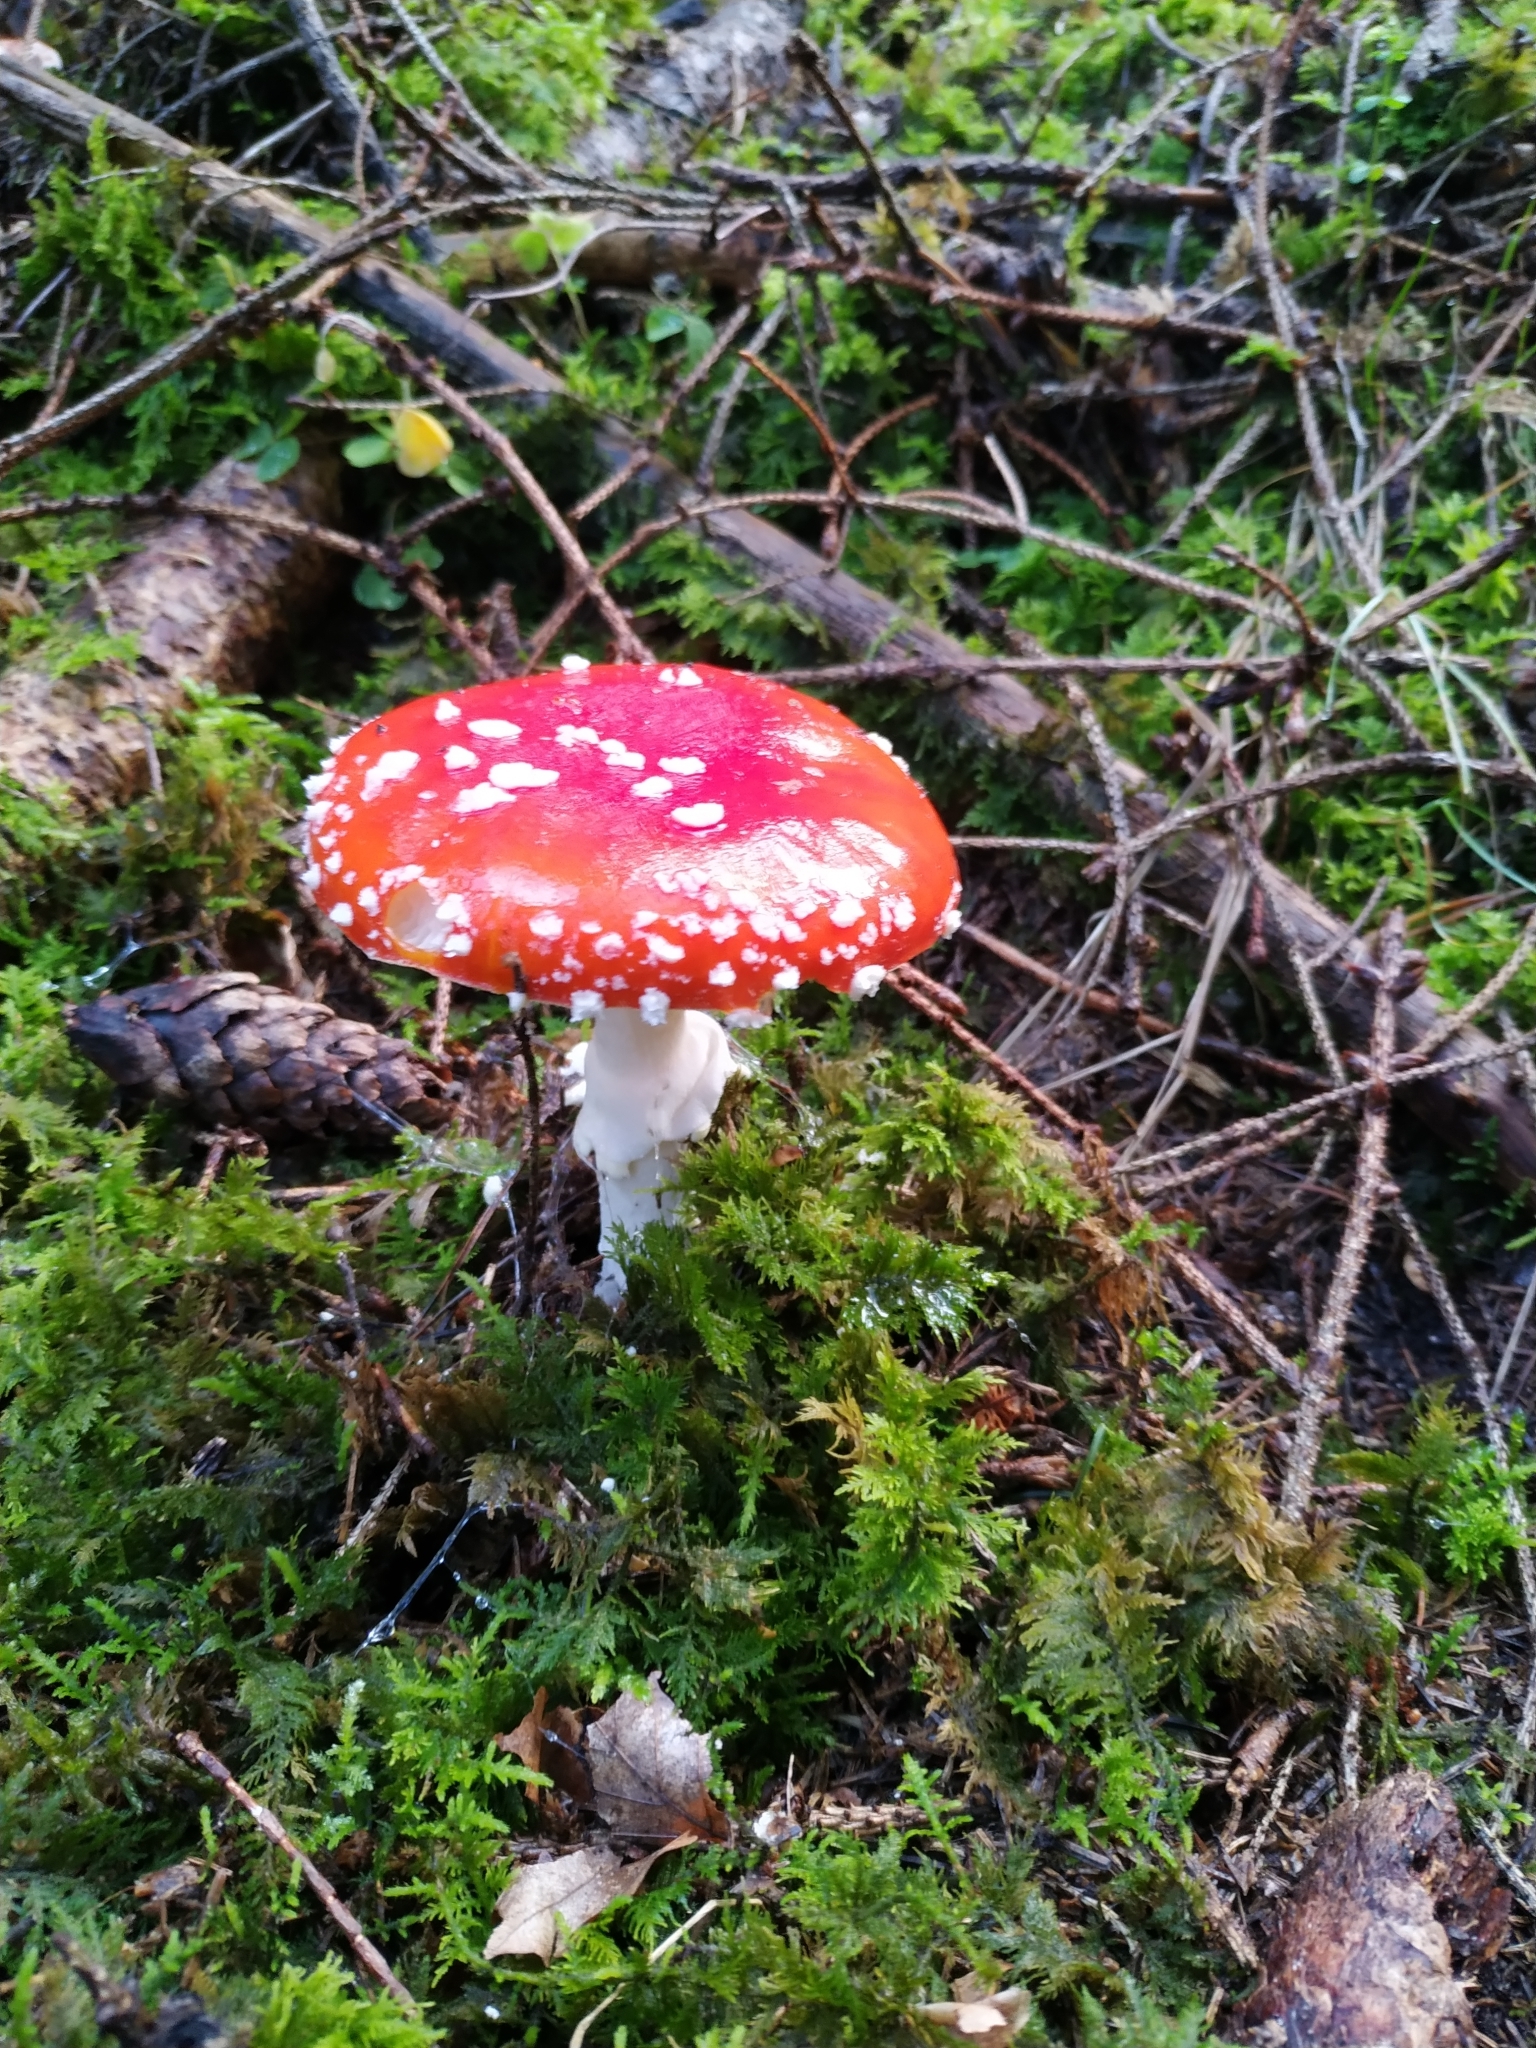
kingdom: Fungi
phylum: Basidiomycota
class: Agaricomycetes
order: Agaricales
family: Amanitaceae
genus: Amanita
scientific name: Amanita muscaria
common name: Fly agaric
